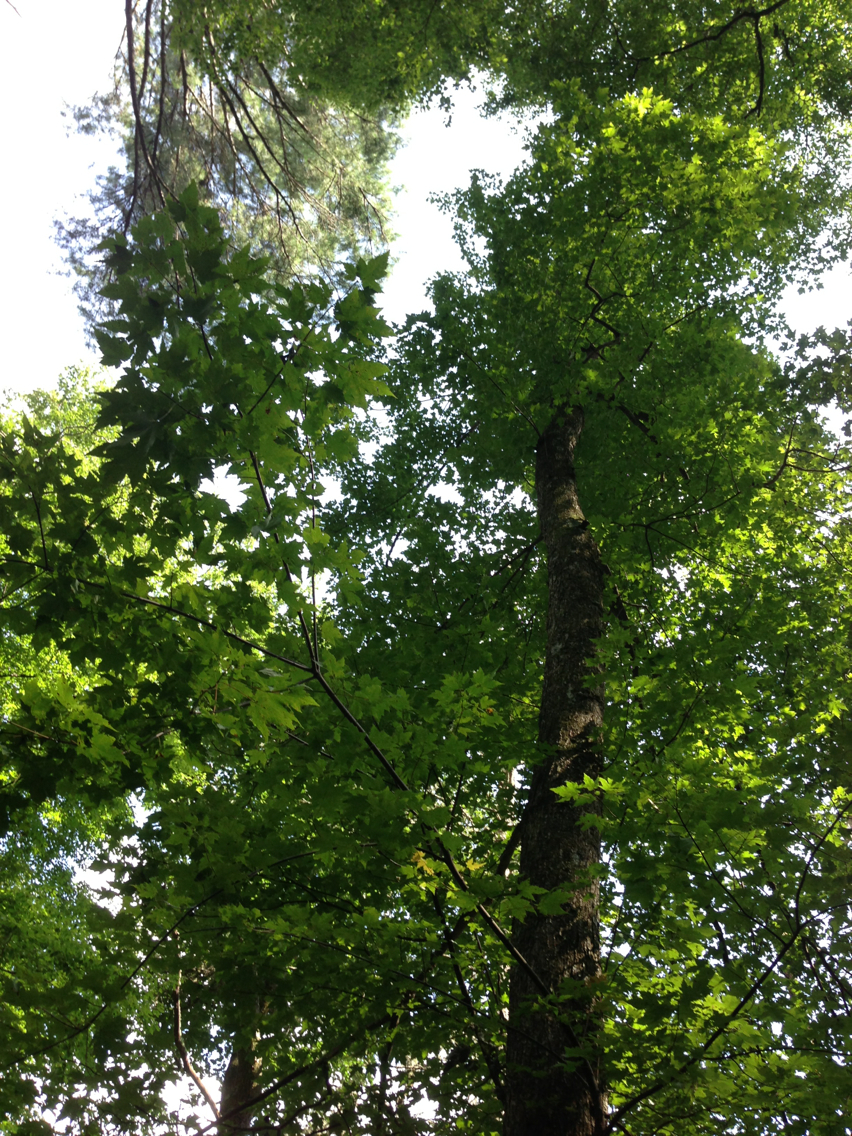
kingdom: Plantae
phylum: Tracheophyta
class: Magnoliopsida
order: Sapindales
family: Sapindaceae
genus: Acer
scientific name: Acer rubrum
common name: Red maple
